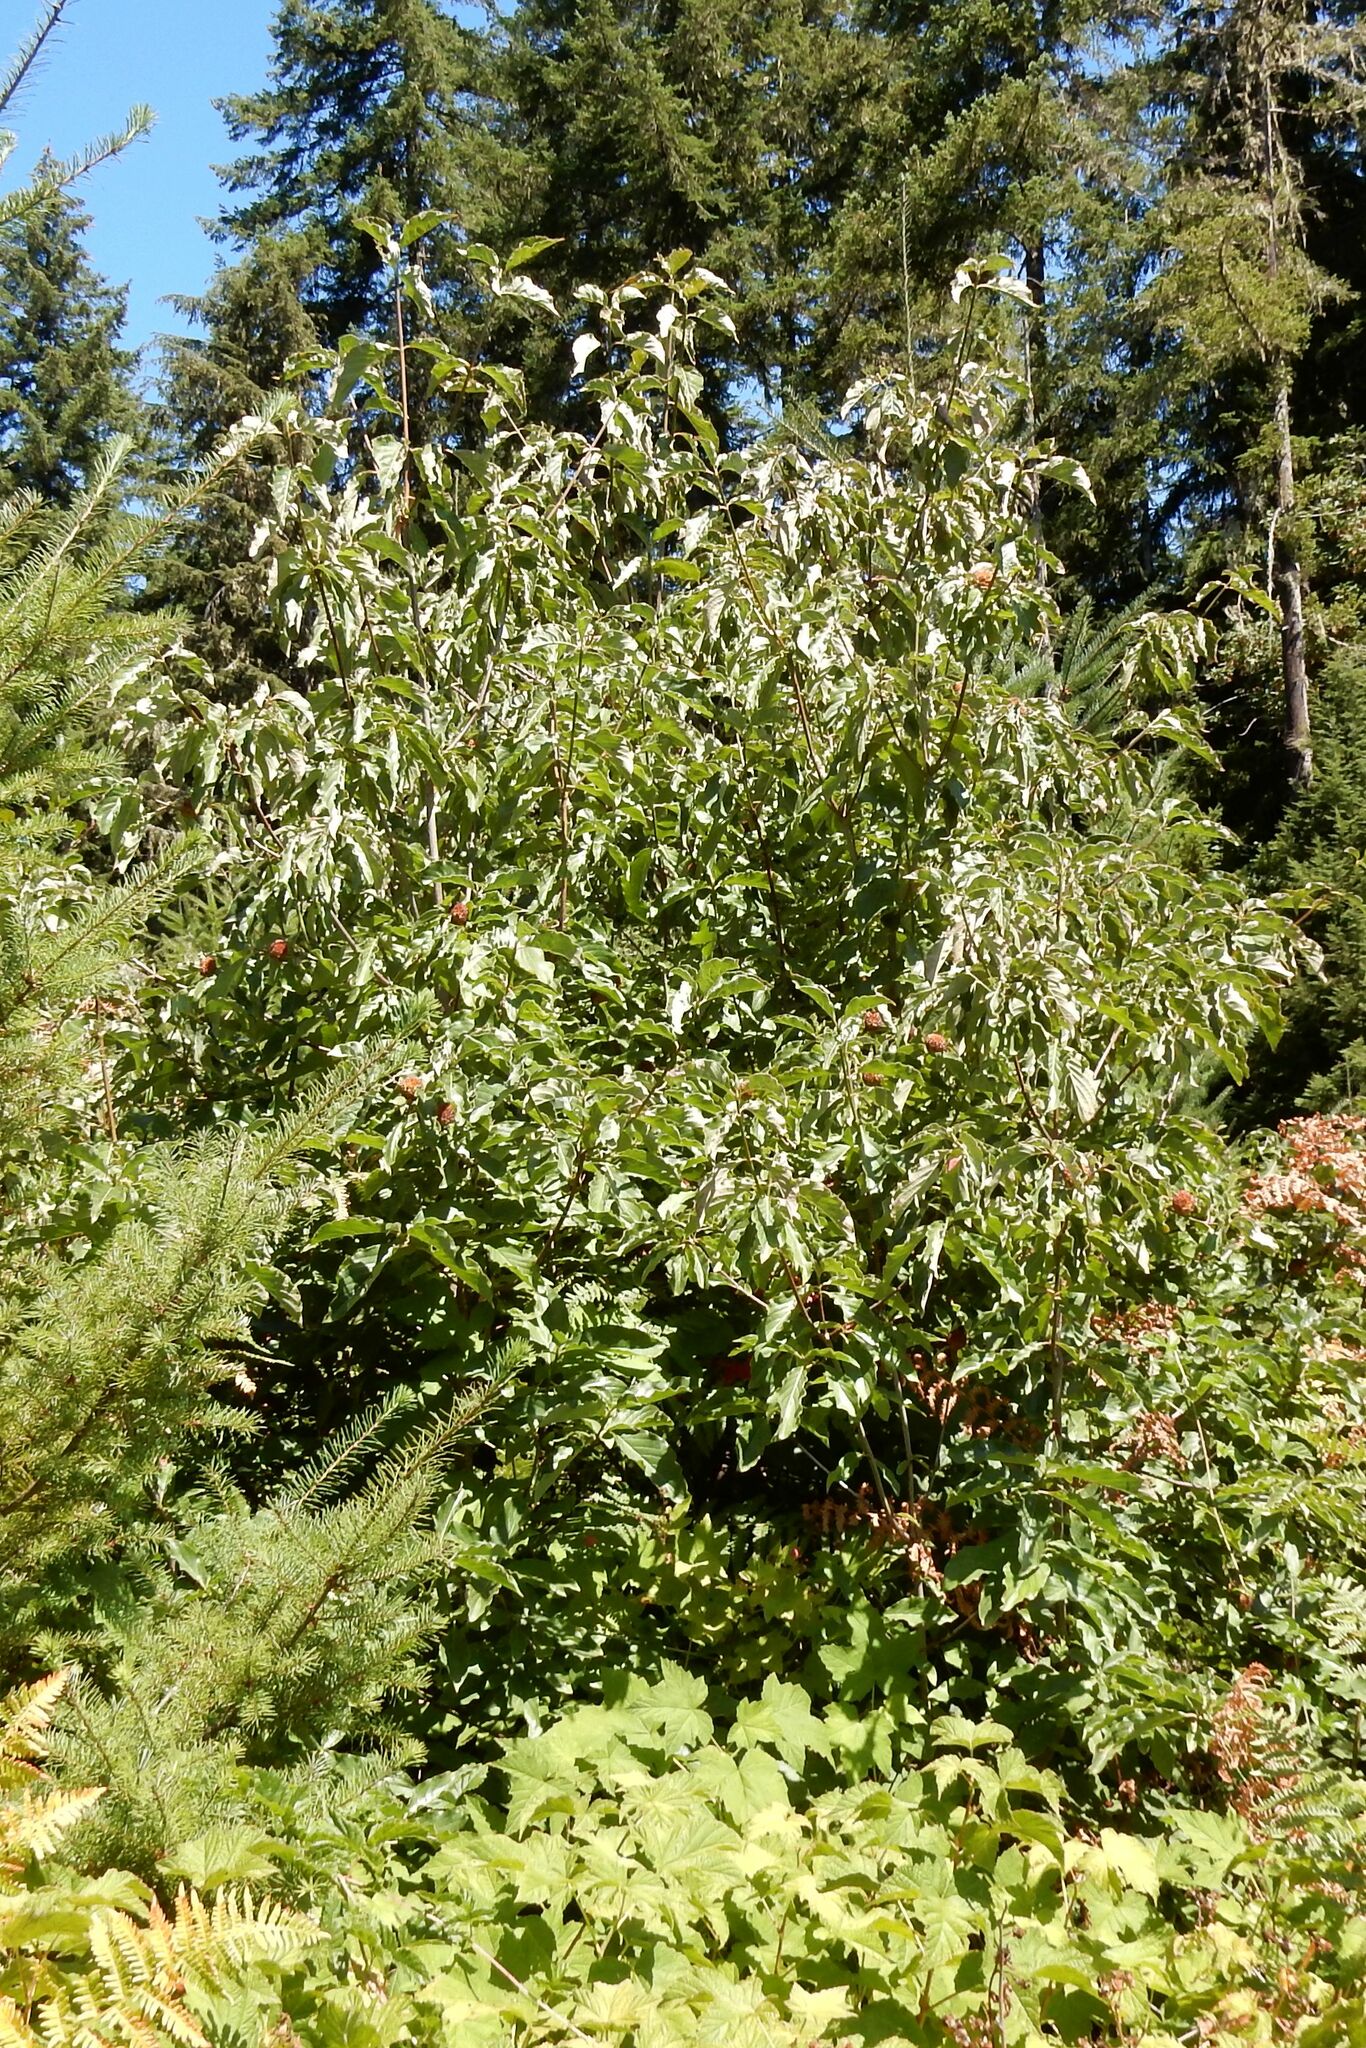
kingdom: Plantae
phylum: Tracheophyta
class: Magnoliopsida
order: Cornales
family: Cornaceae
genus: Cornus
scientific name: Cornus nuttallii
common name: Pacific dogwood
